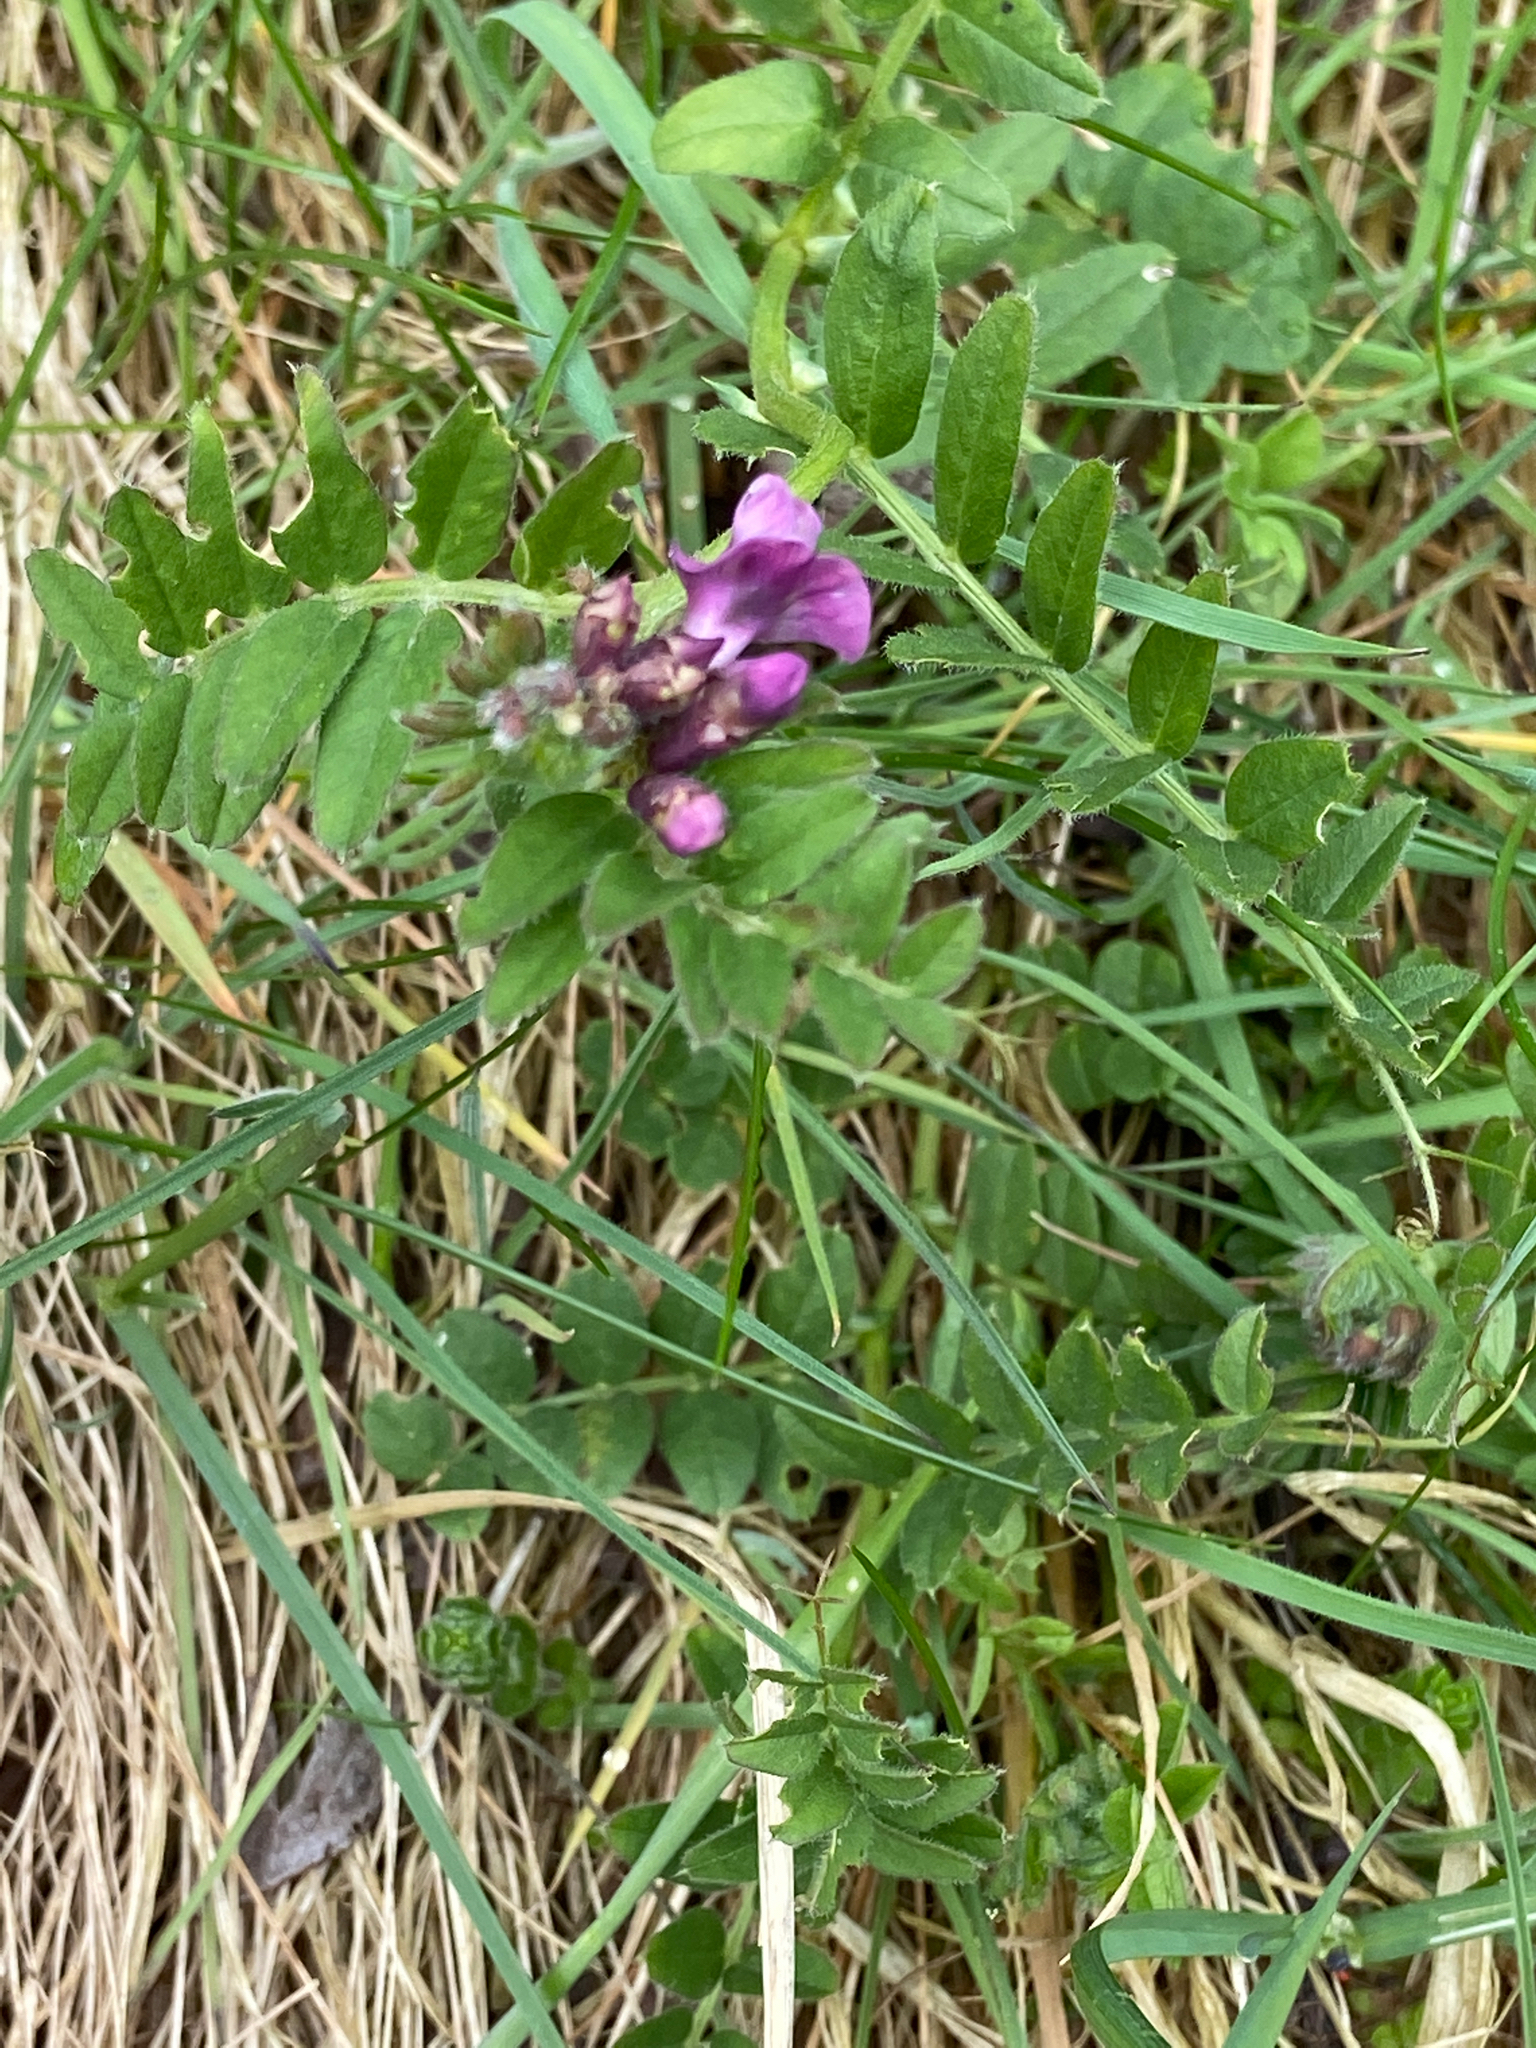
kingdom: Plantae
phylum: Tracheophyta
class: Magnoliopsida
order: Fabales
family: Fabaceae
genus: Vicia
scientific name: Vicia sepium
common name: Bush vetch
